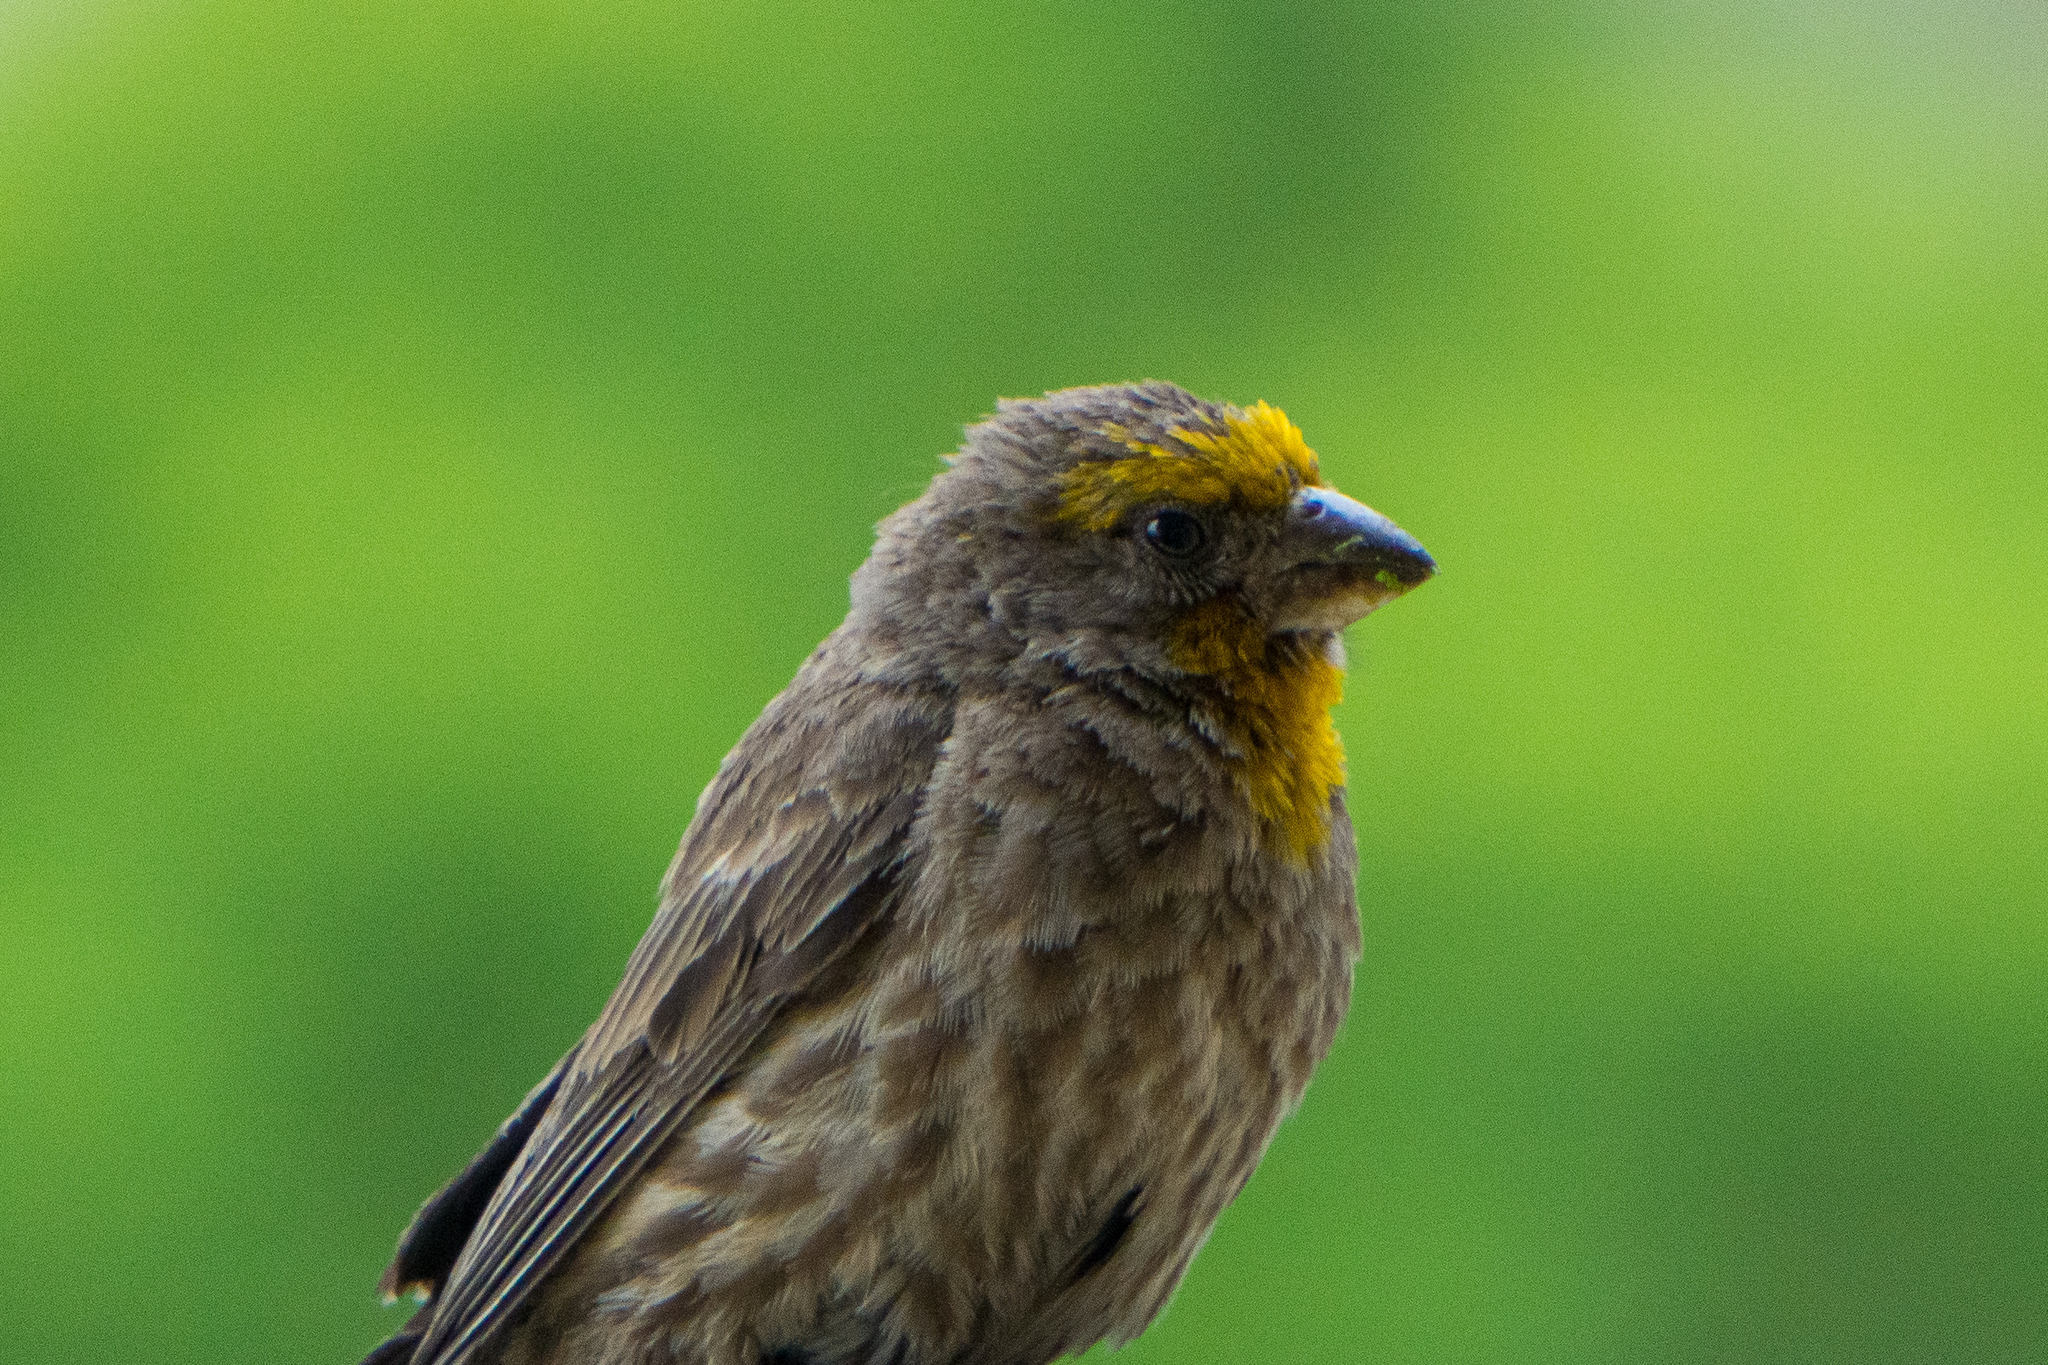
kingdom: Animalia
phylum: Chordata
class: Aves
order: Passeriformes
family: Fringillidae
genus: Haemorhous
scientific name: Haemorhous mexicanus
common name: House finch
